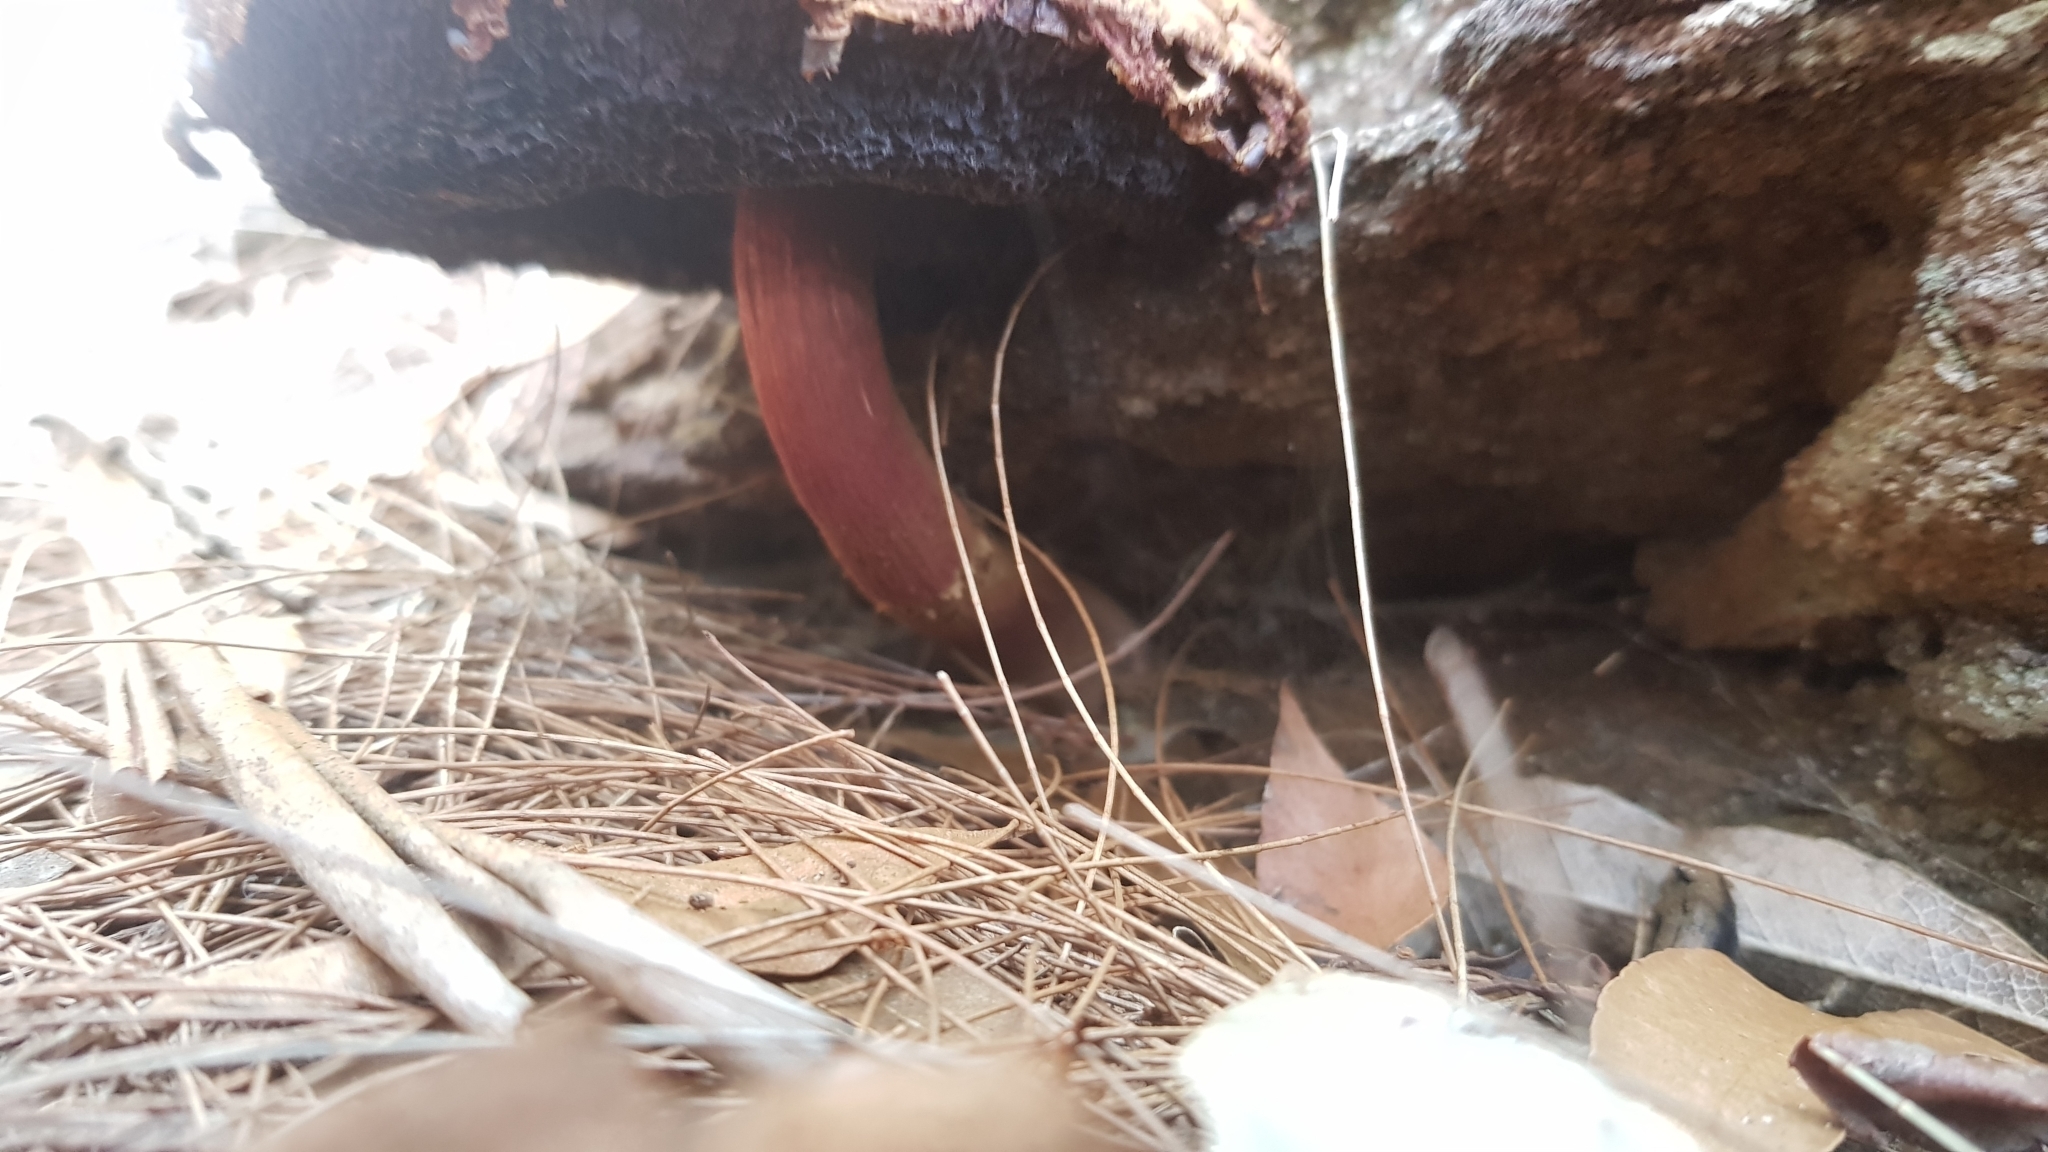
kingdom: Fungi
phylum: Basidiomycota
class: Agaricomycetes
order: Boletales
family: Boletaceae
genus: Boletellus
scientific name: Boletellus emodensis
